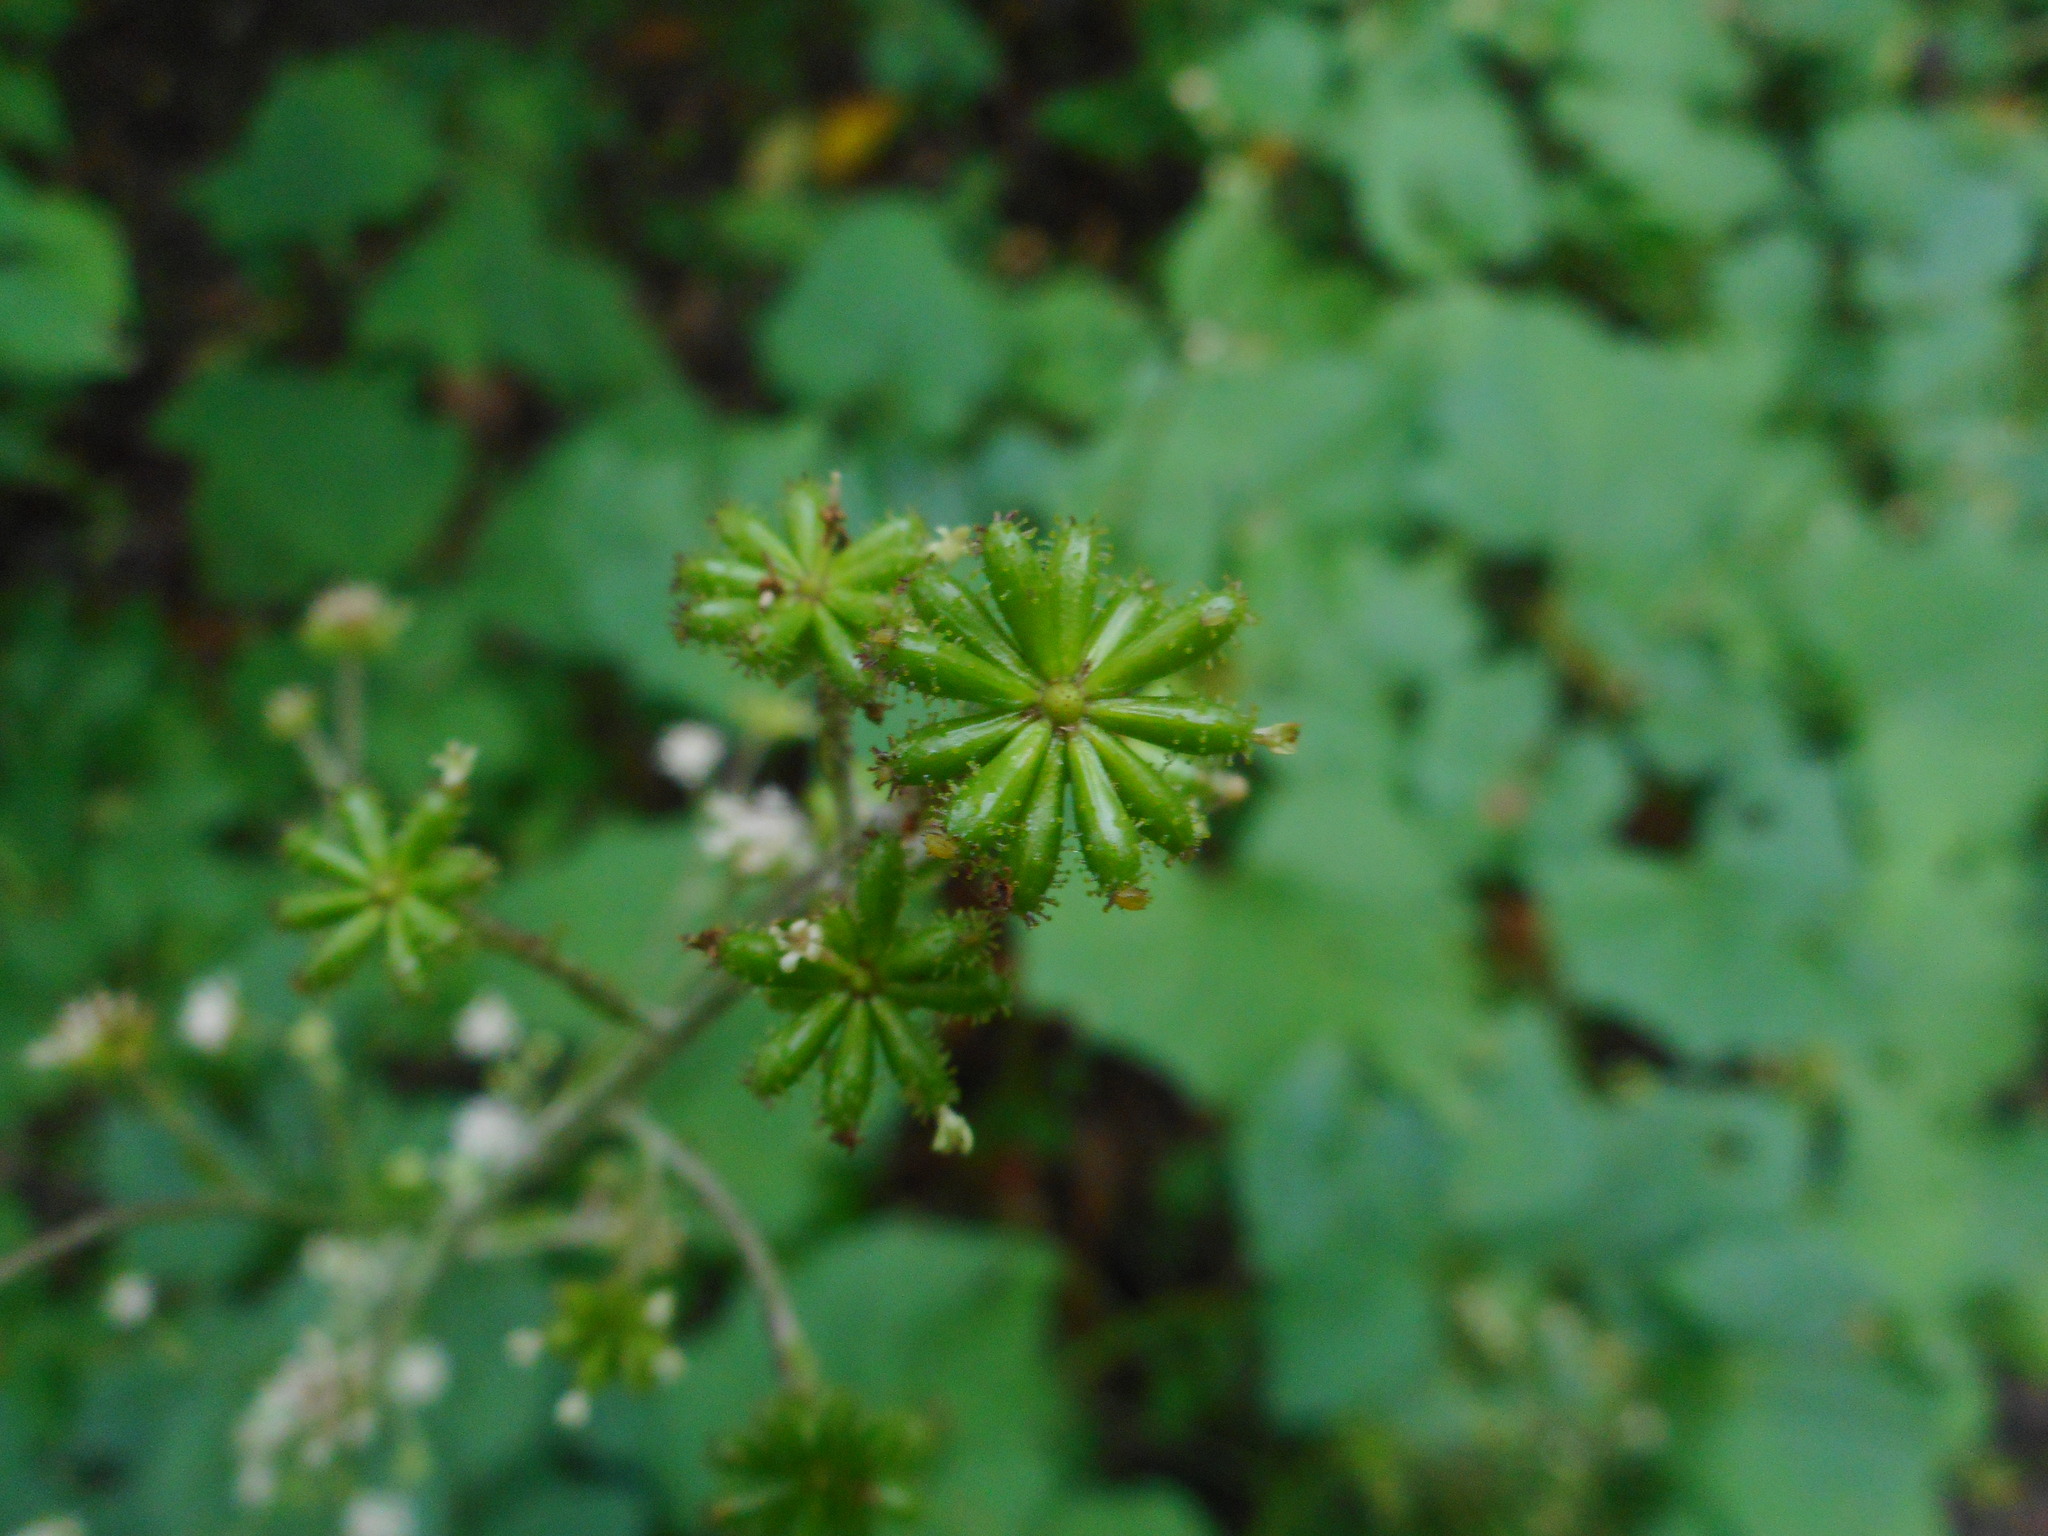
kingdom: Plantae
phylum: Tracheophyta
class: Magnoliopsida
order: Asterales
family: Asteraceae
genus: Adenocaulon
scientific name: Adenocaulon himalaicum
